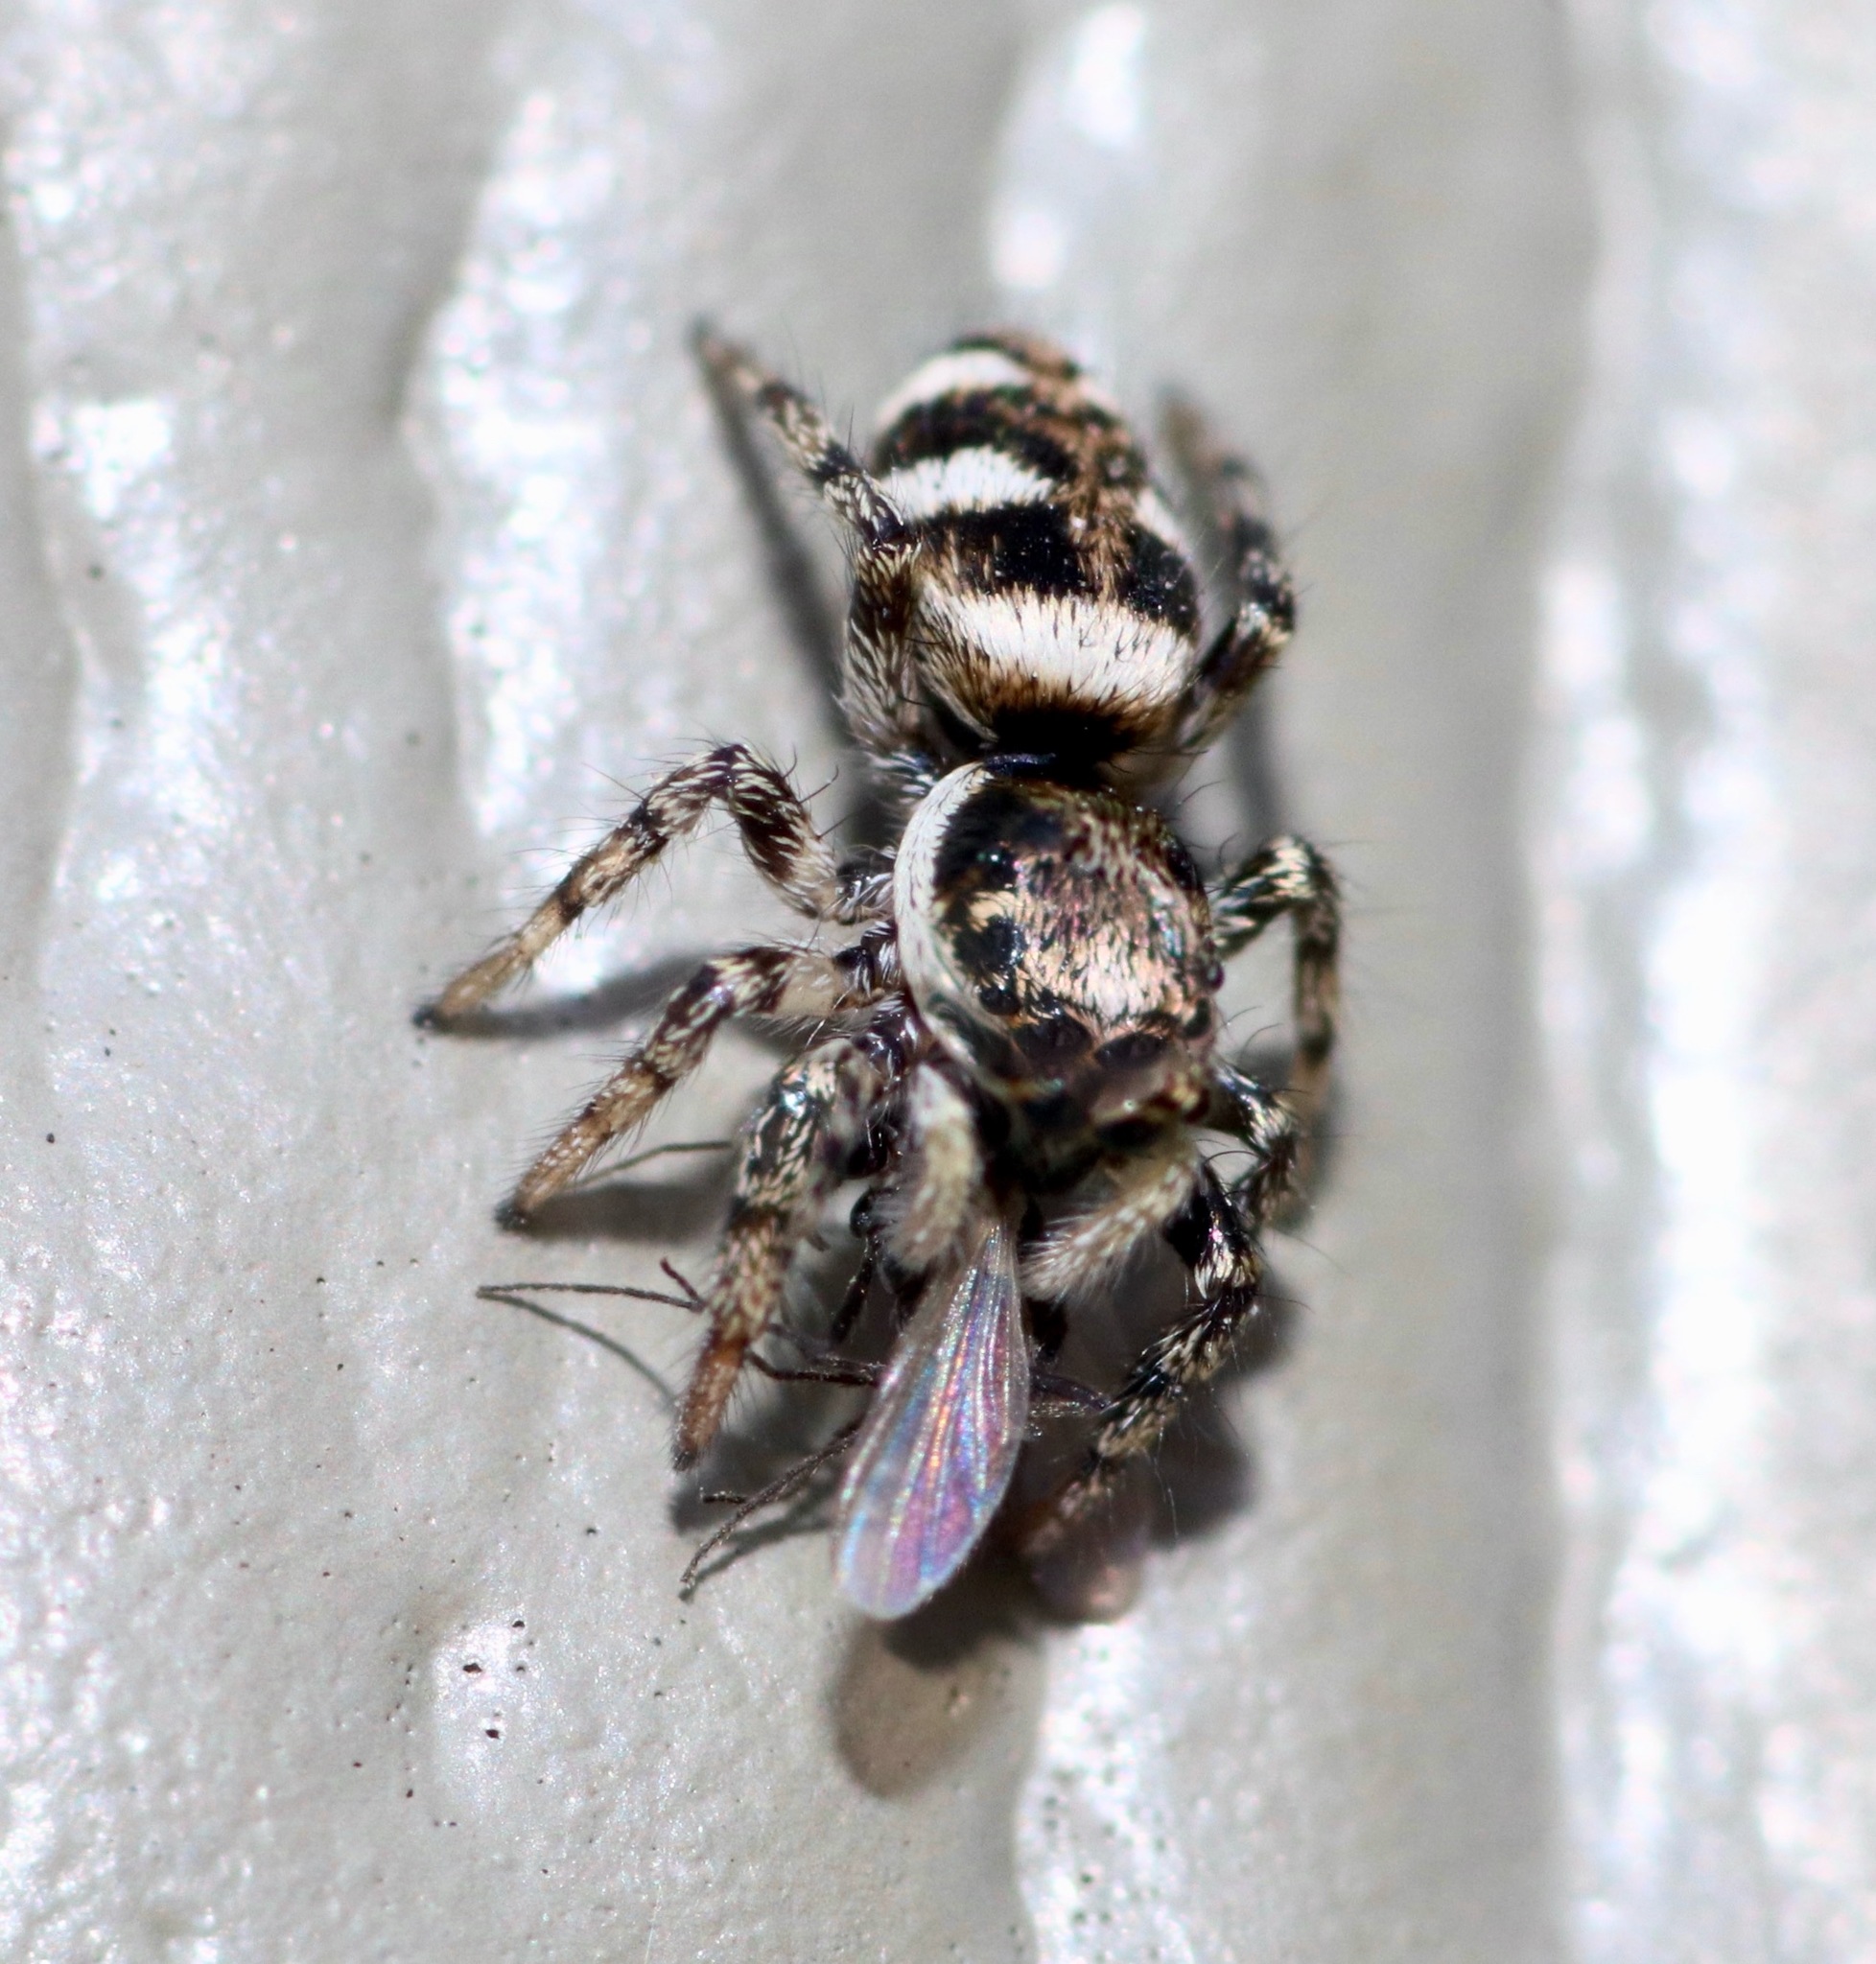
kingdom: Animalia
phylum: Arthropoda
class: Arachnida
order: Araneae
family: Salticidae
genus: Salticus
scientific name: Salticus scenicus
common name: Zebra jumper
